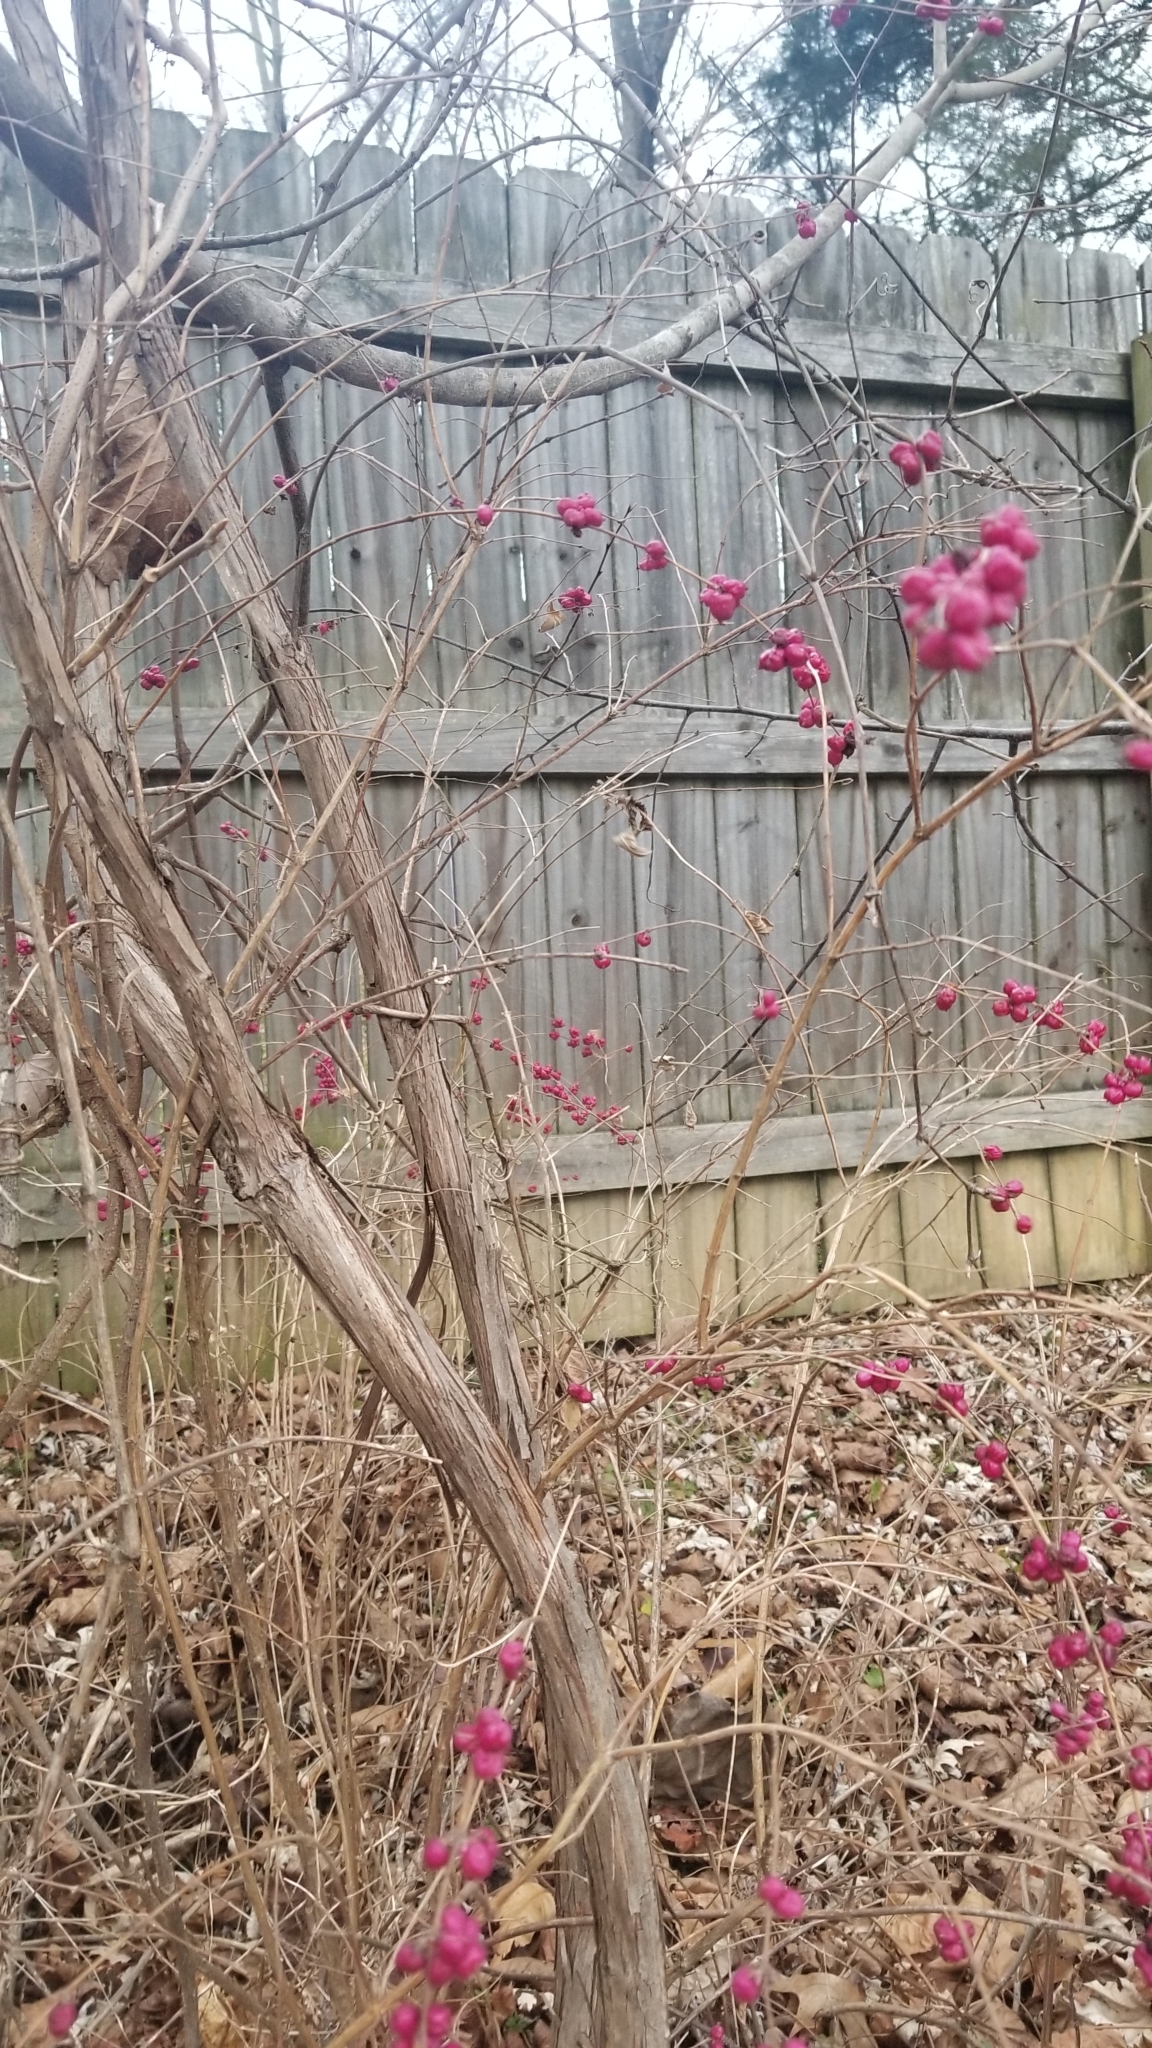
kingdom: Plantae
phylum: Tracheophyta
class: Magnoliopsida
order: Dipsacales
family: Caprifoliaceae
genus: Symphoricarpos
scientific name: Symphoricarpos orbiculatus
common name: Coralberry
